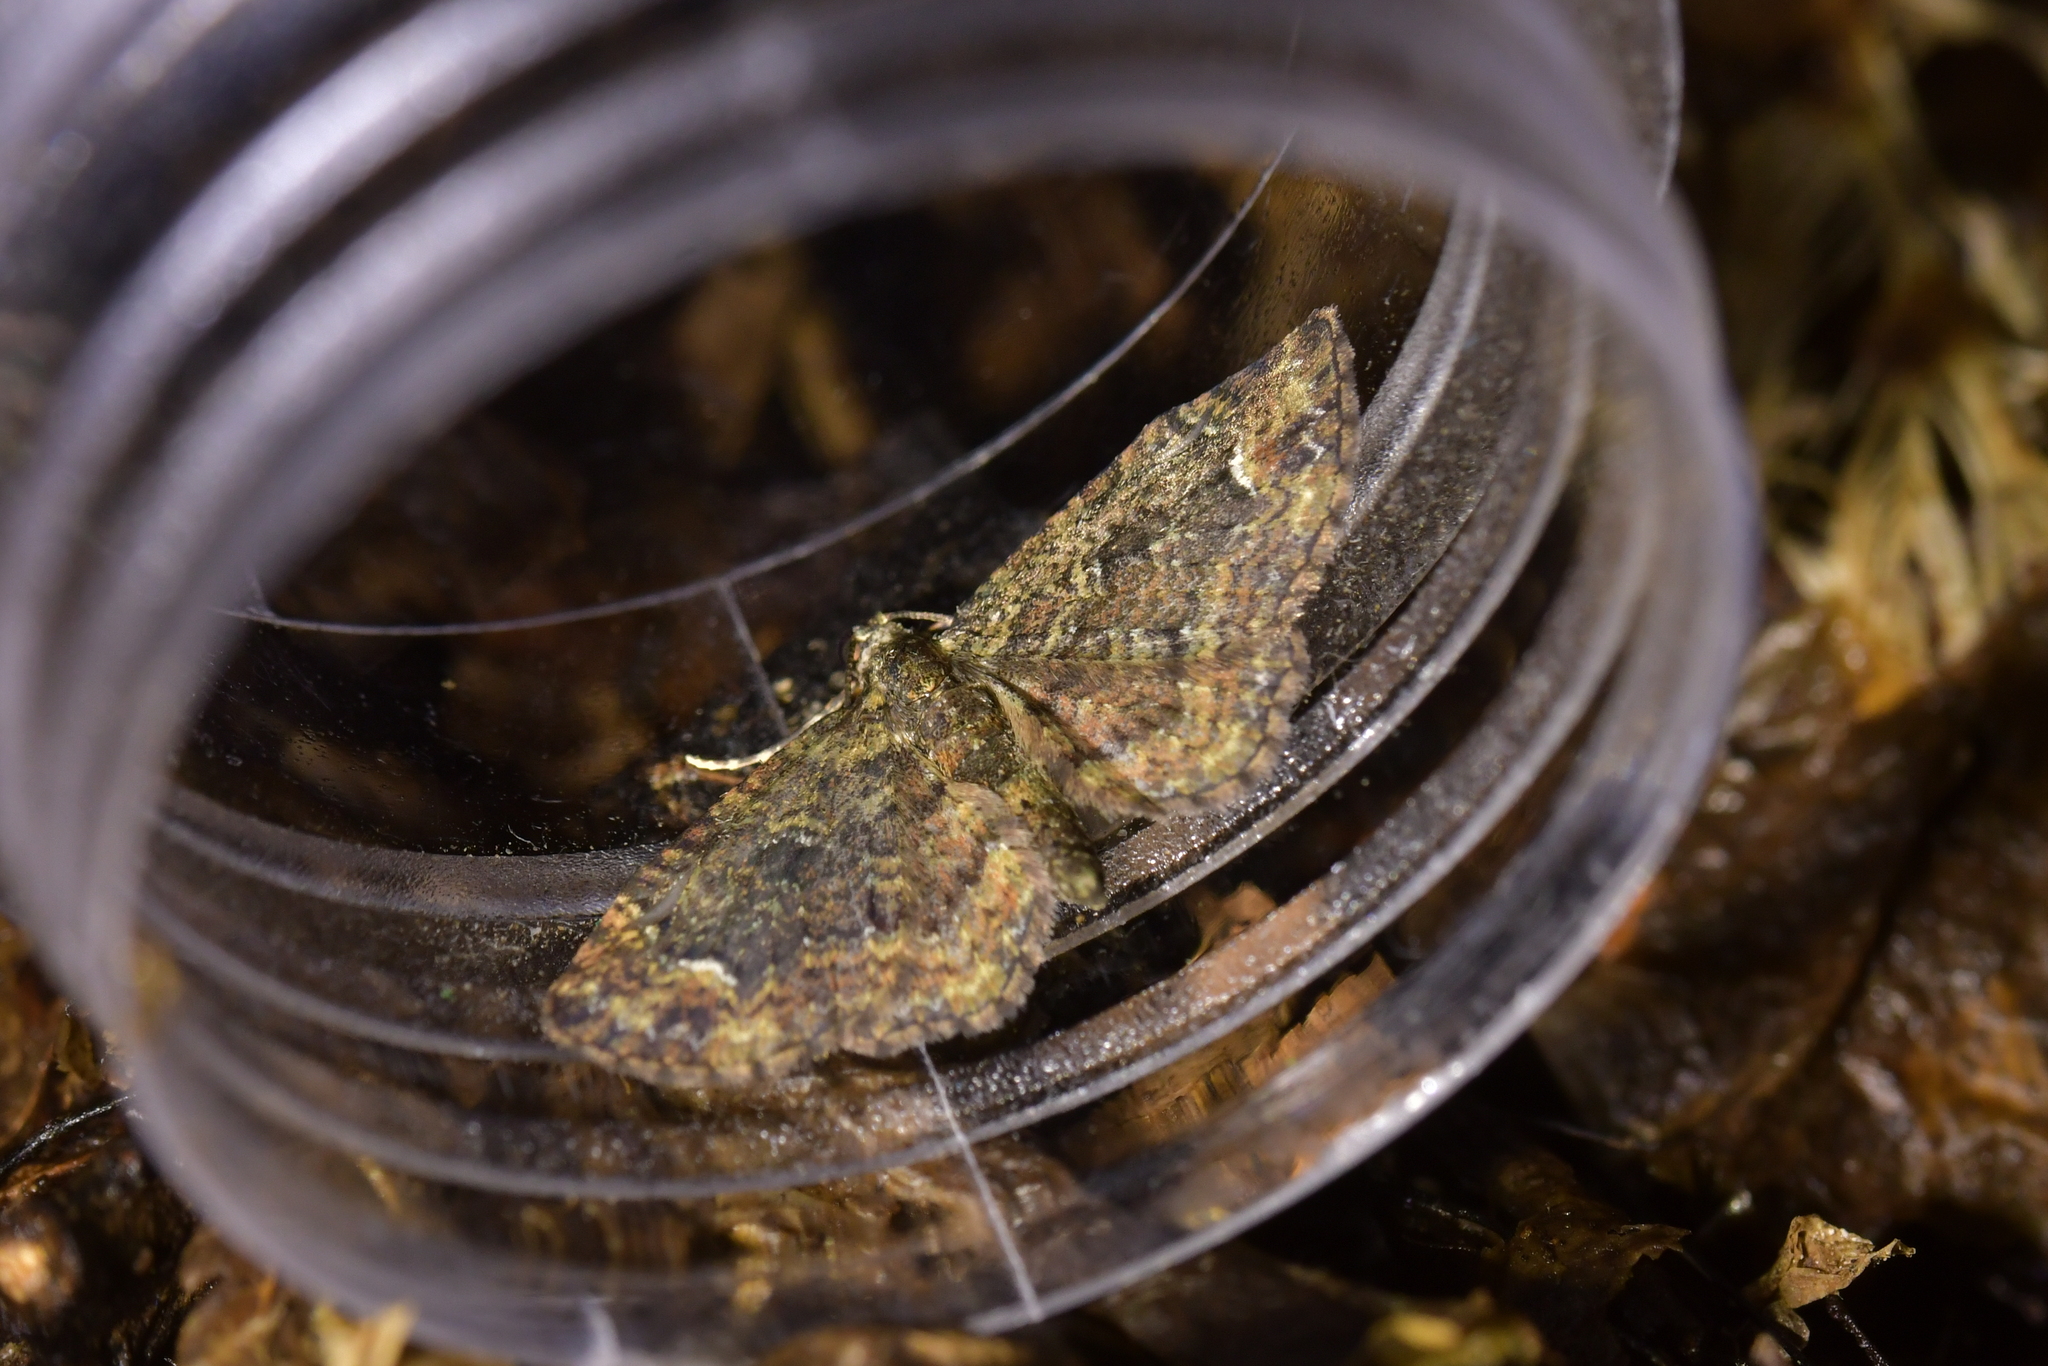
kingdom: Animalia
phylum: Arthropoda
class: Insecta
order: Lepidoptera
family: Geometridae
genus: Pasiphilodes
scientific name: Pasiphilodes testulata
